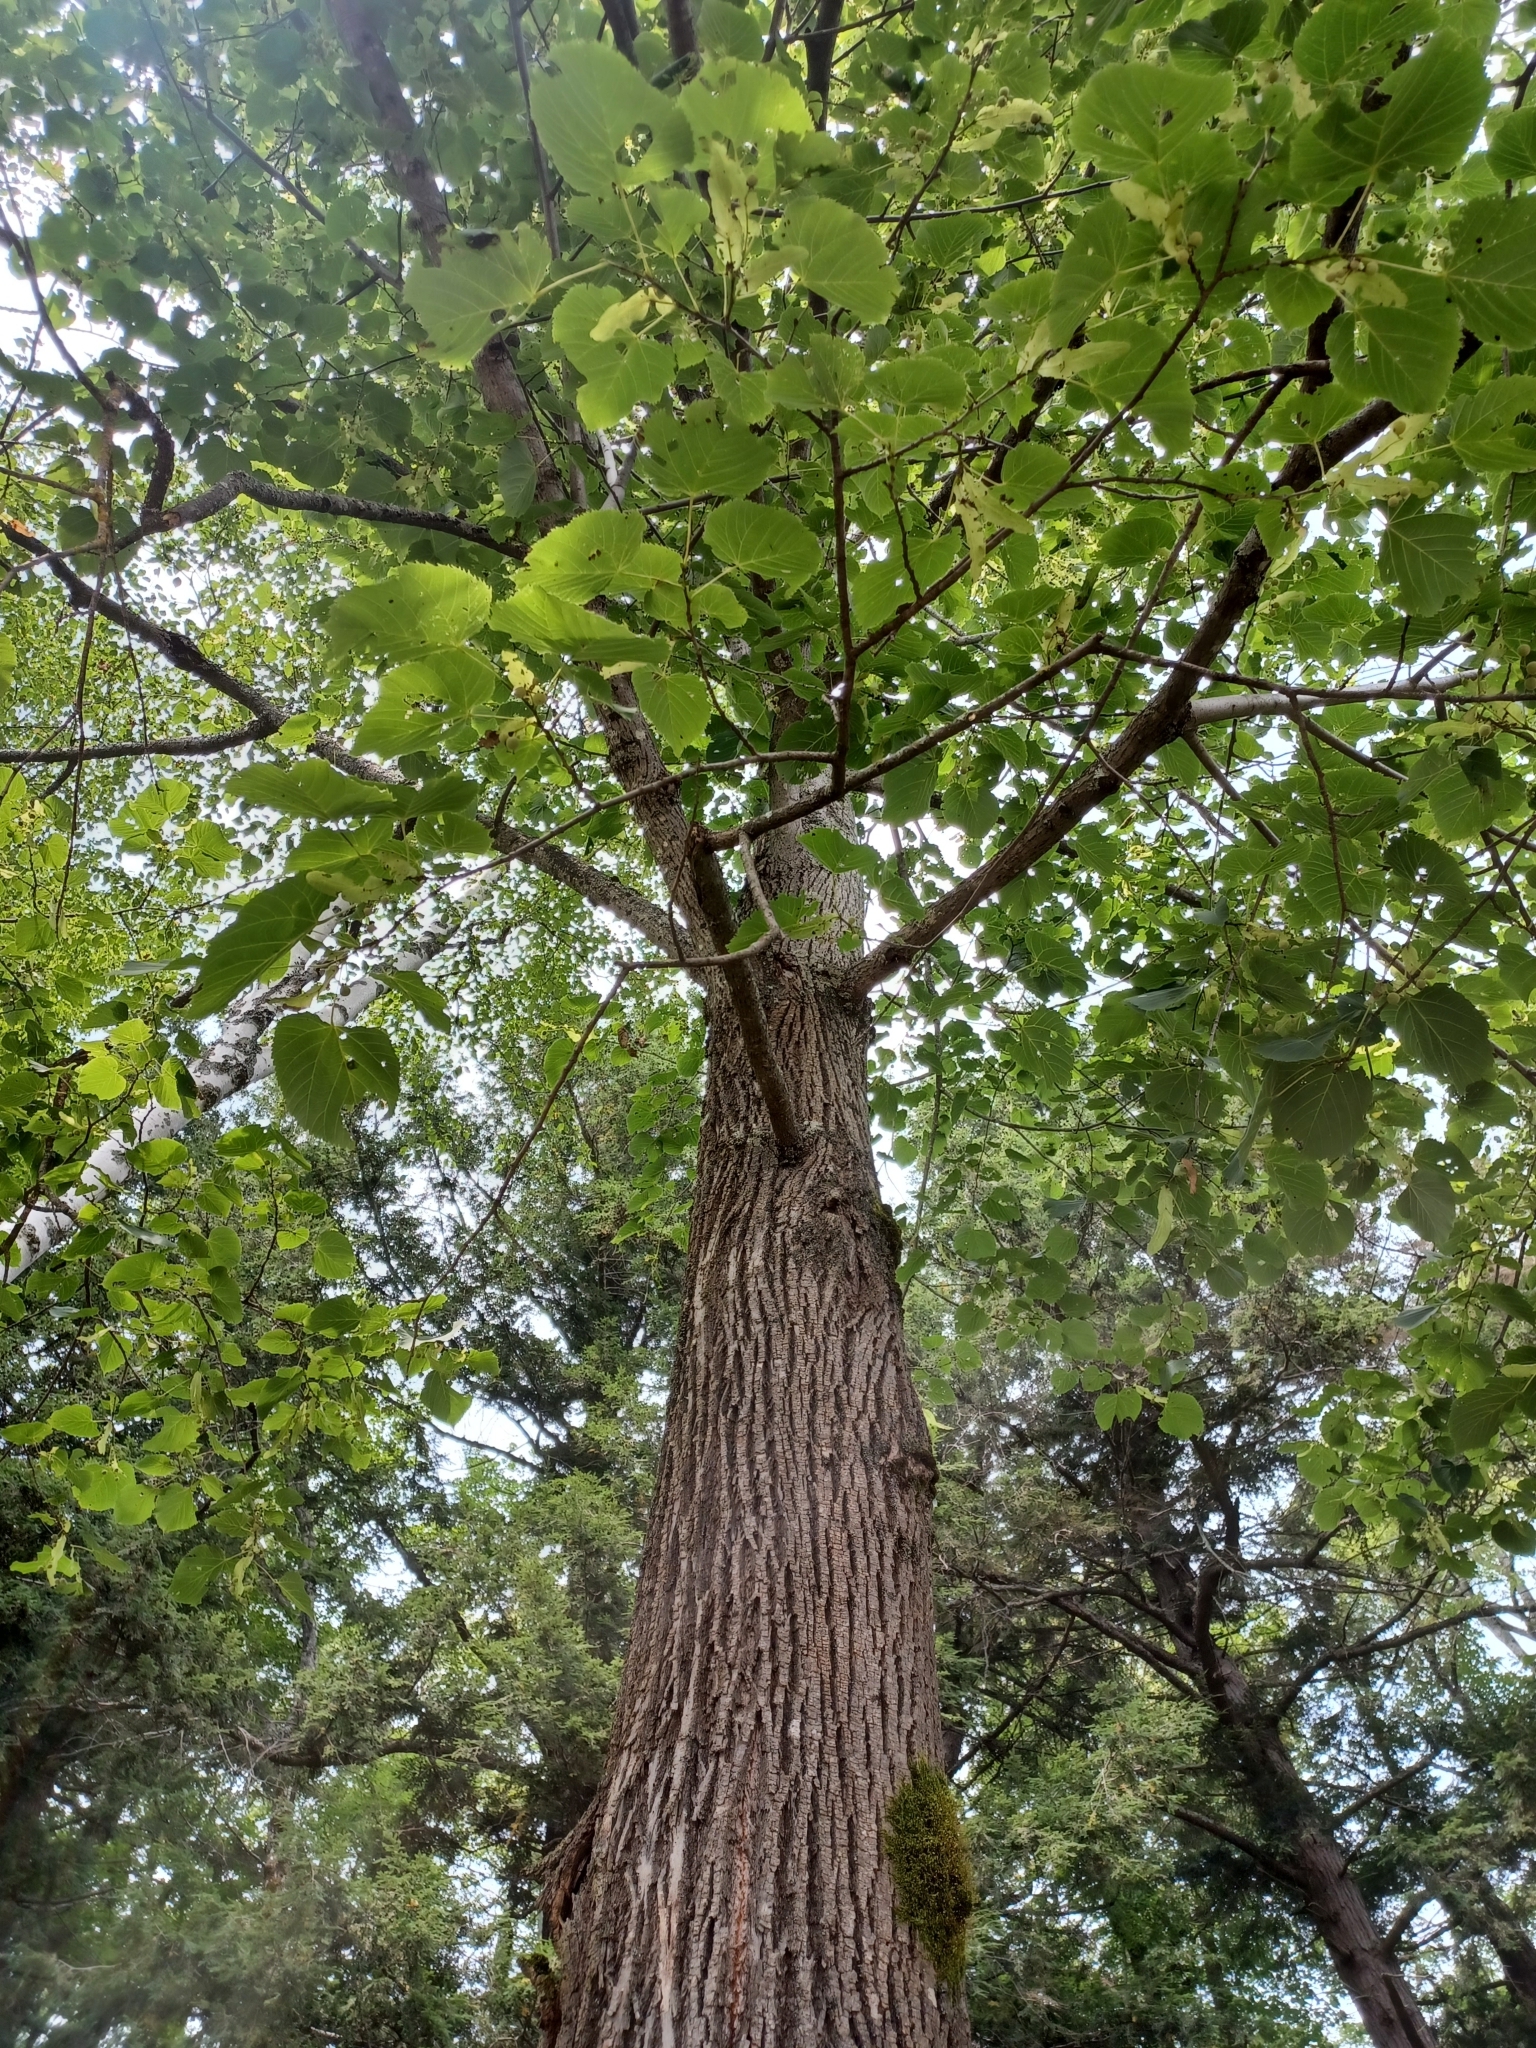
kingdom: Plantae
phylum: Tracheophyta
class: Magnoliopsida
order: Malvales
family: Malvaceae
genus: Tilia
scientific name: Tilia americana
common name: Basswood
